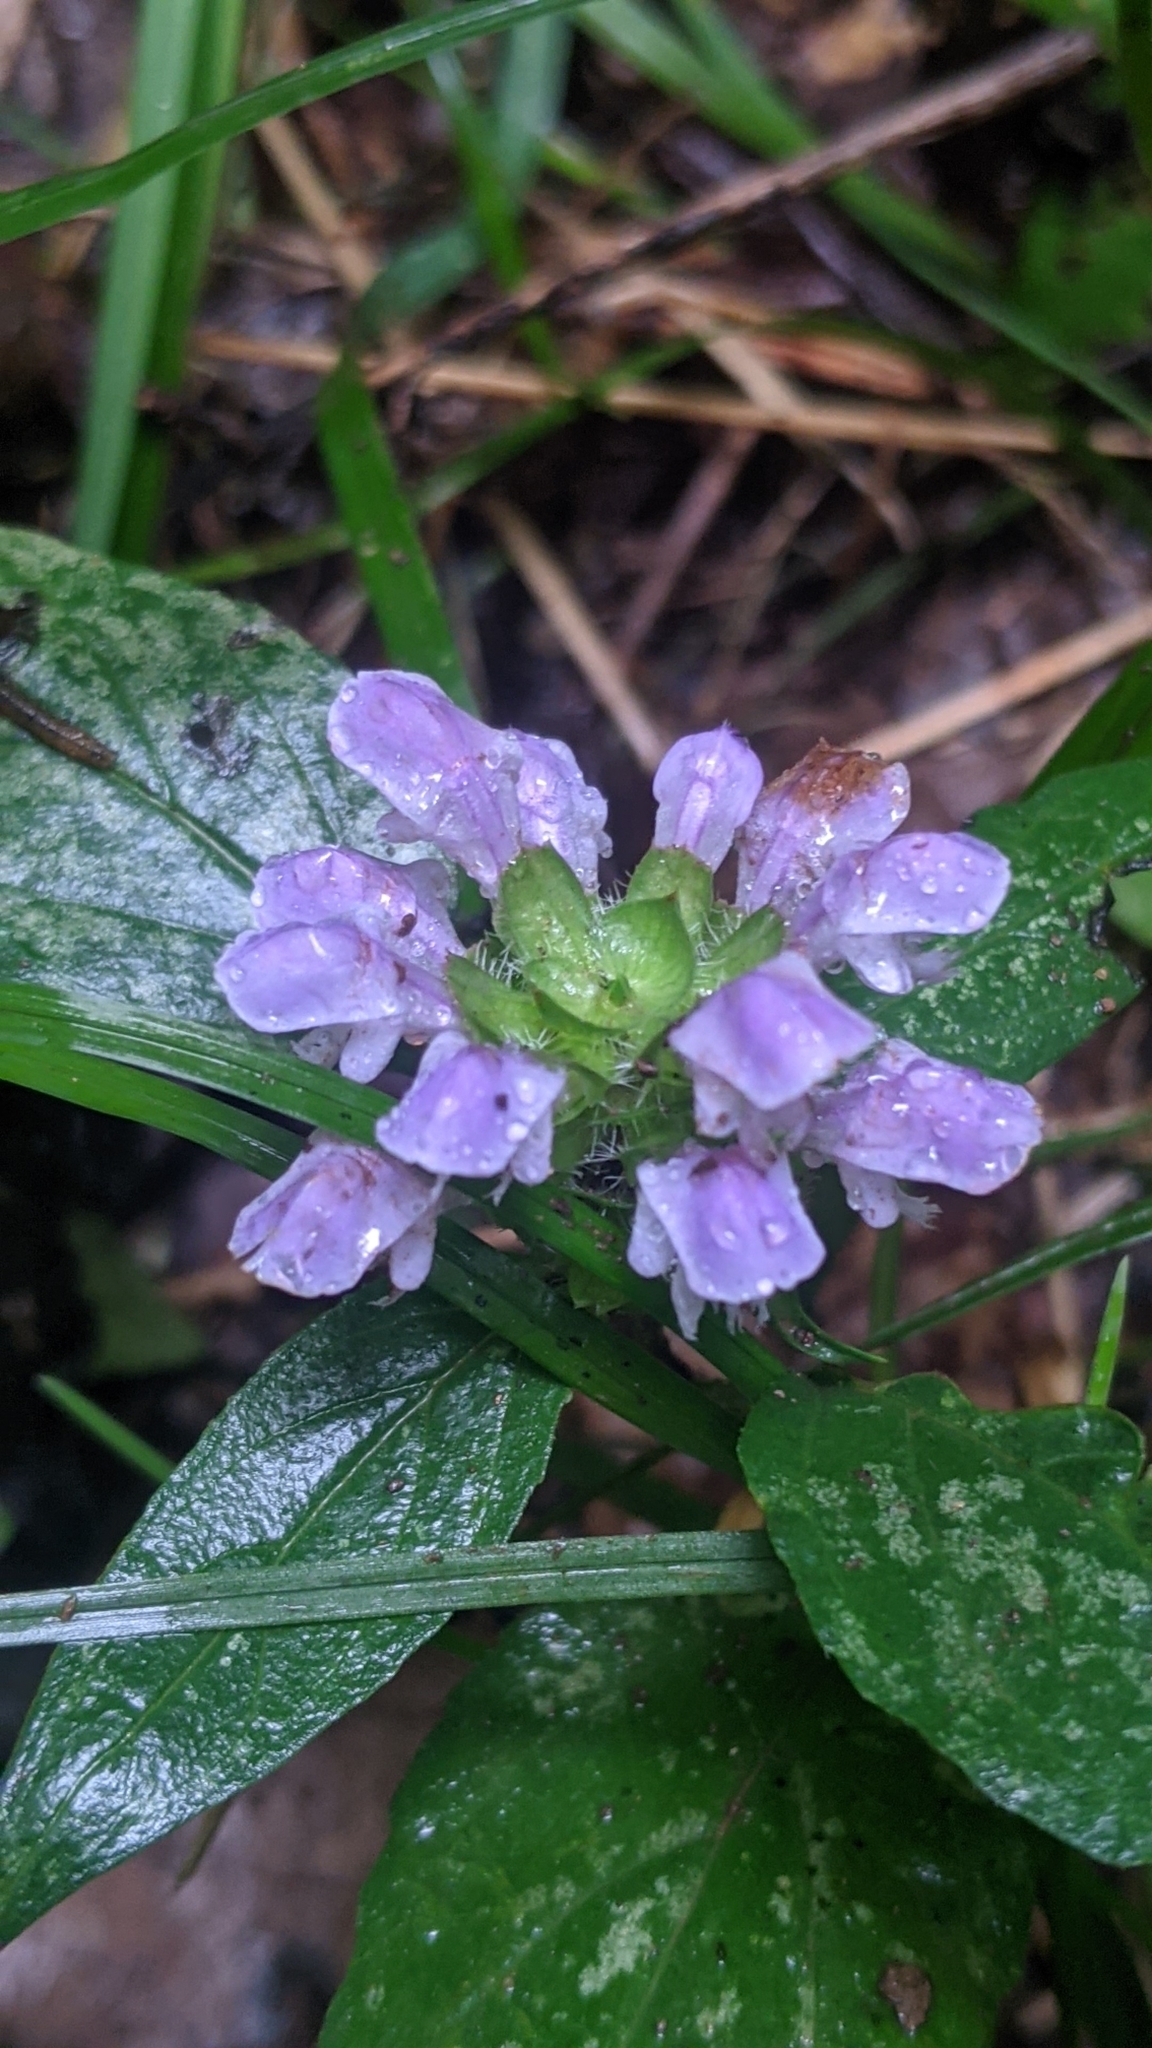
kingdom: Plantae
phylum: Tracheophyta
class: Magnoliopsida
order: Lamiales
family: Lamiaceae
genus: Prunella
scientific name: Prunella vulgaris
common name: Heal-all
